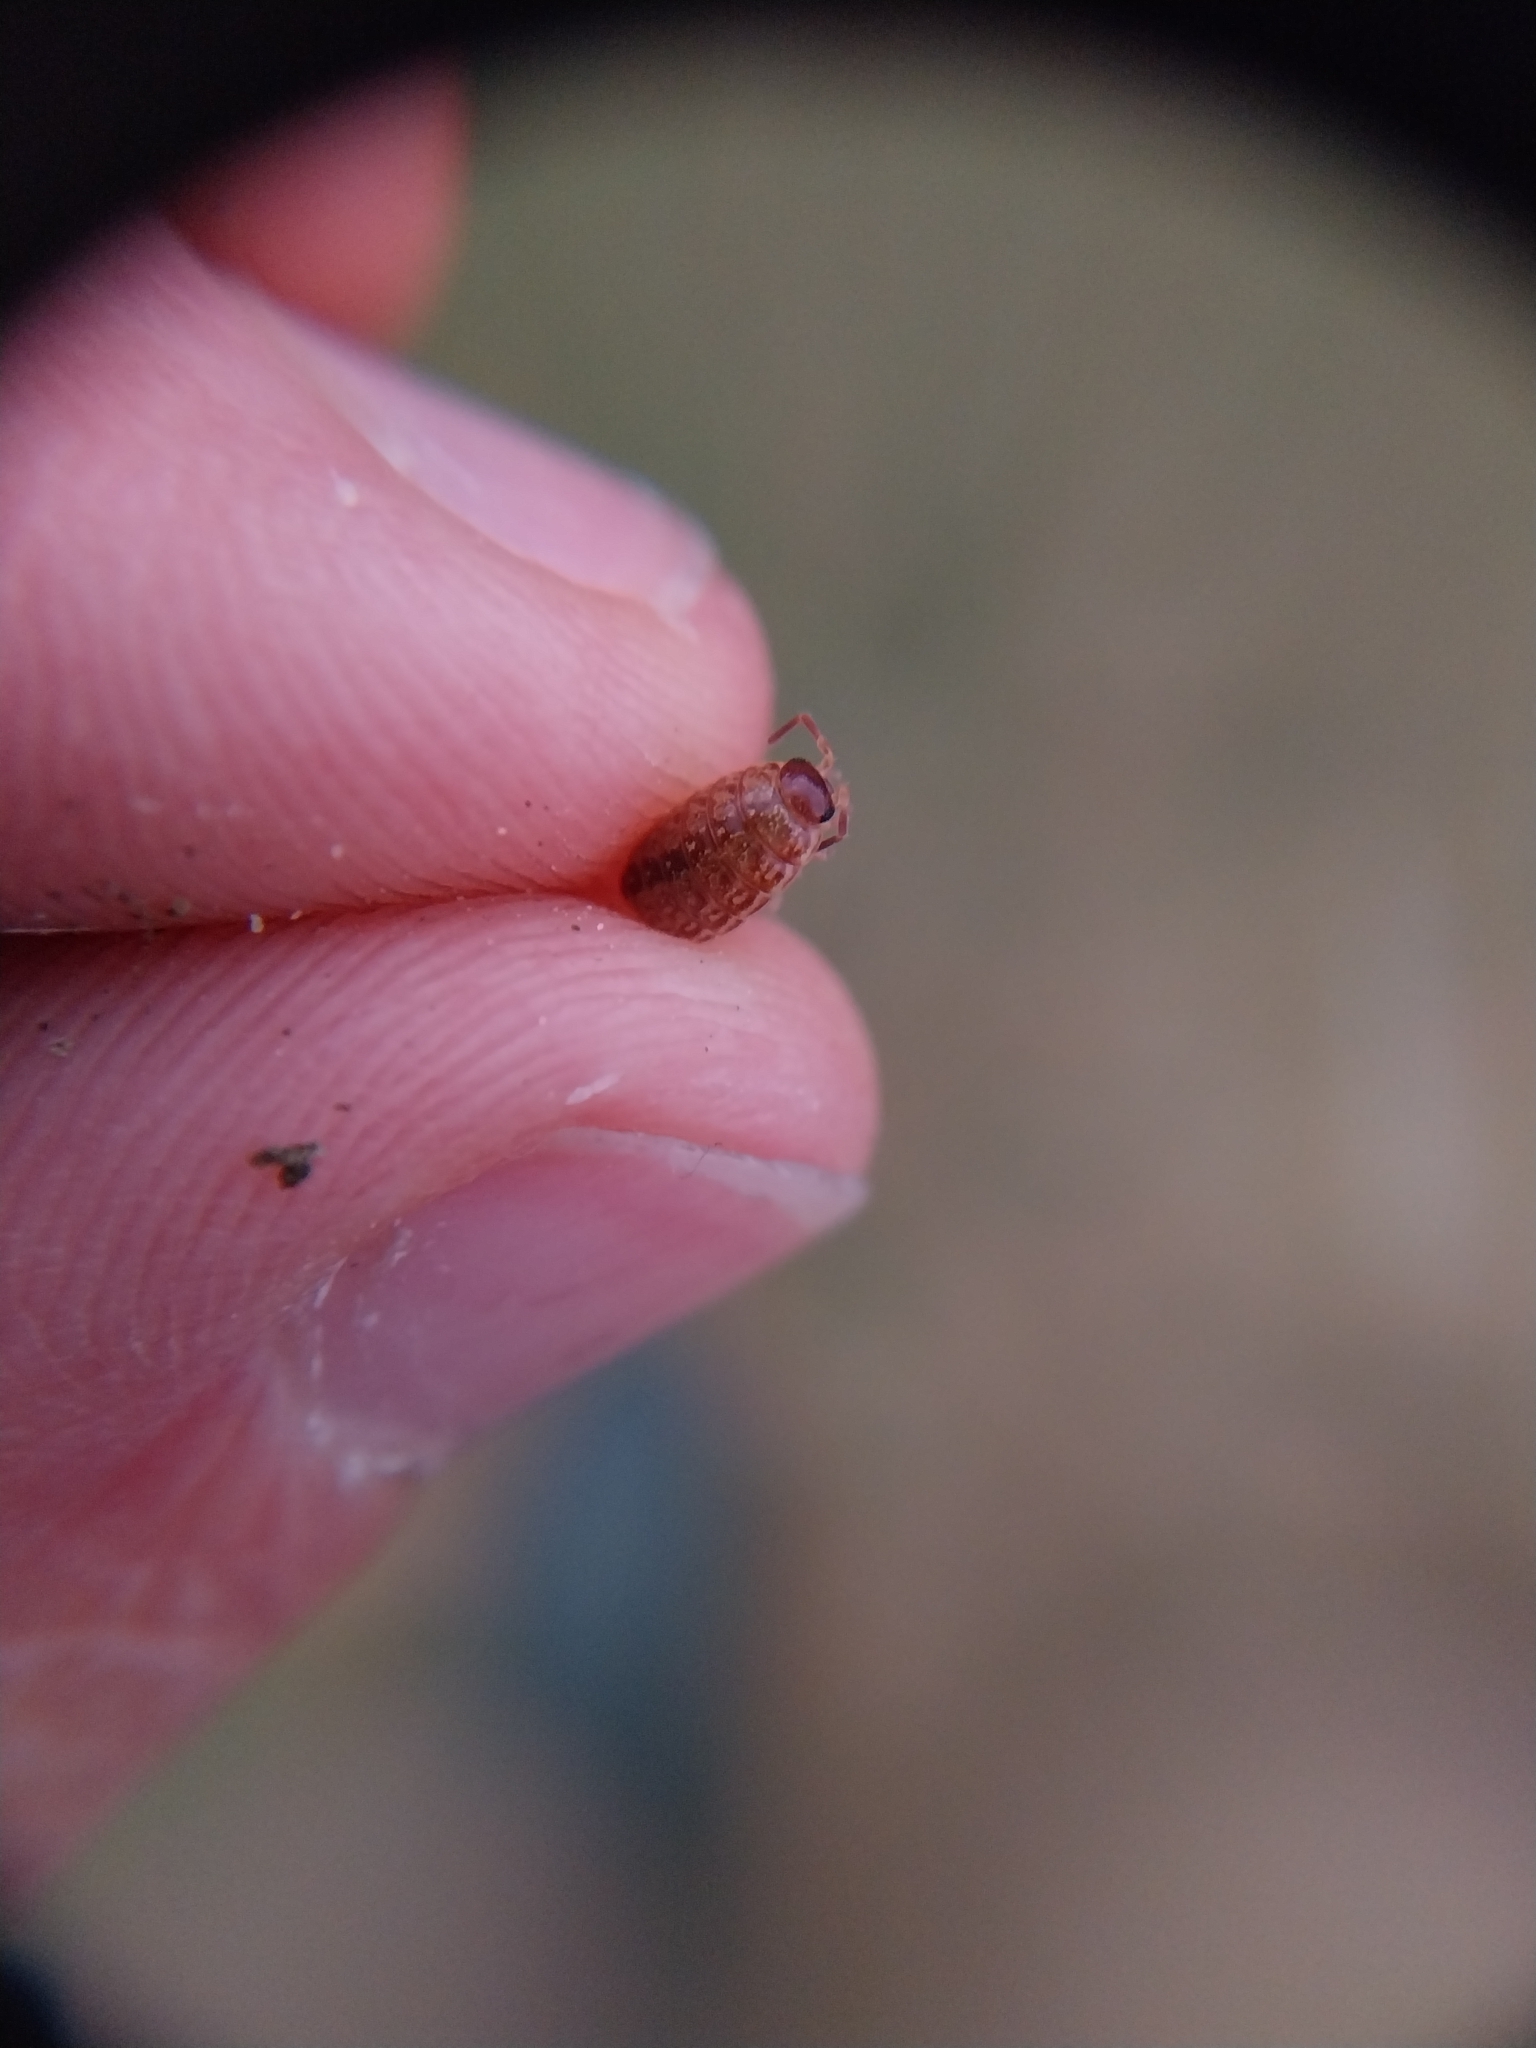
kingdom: Animalia
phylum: Arthropoda
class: Malacostraca
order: Isopoda
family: Philosciidae
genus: Philoscia
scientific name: Philoscia muscorum
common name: Common striped woodlouse
